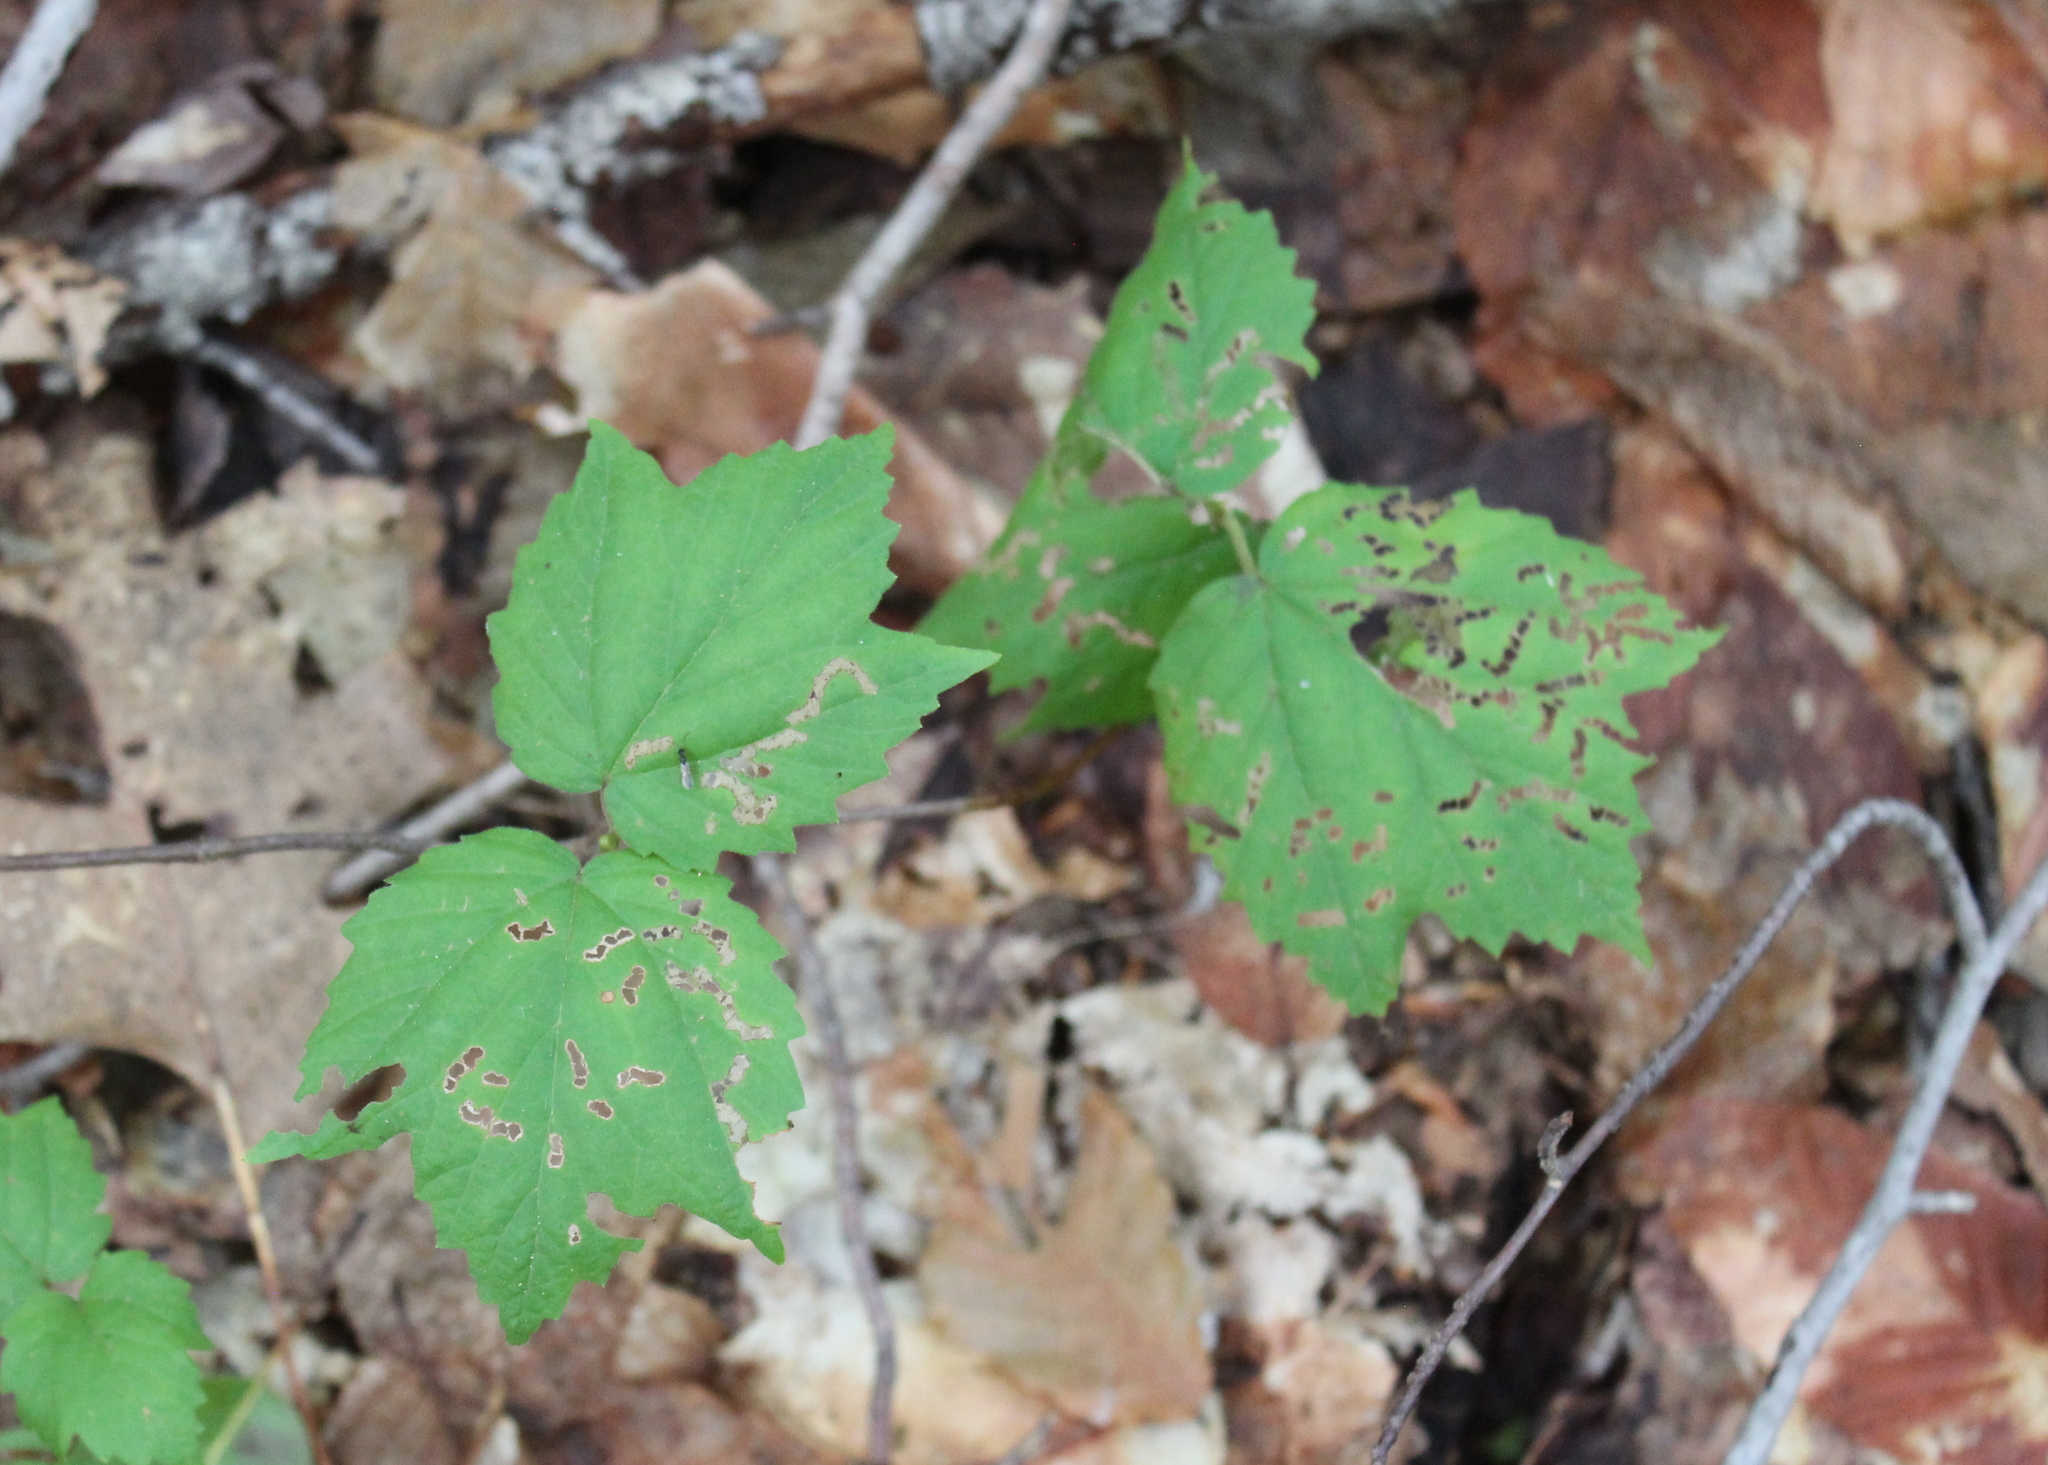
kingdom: Plantae
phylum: Tracheophyta
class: Magnoliopsida
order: Dipsacales
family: Viburnaceae
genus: Viburnum
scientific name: Viburnum acerifolium
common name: Dockmackie
